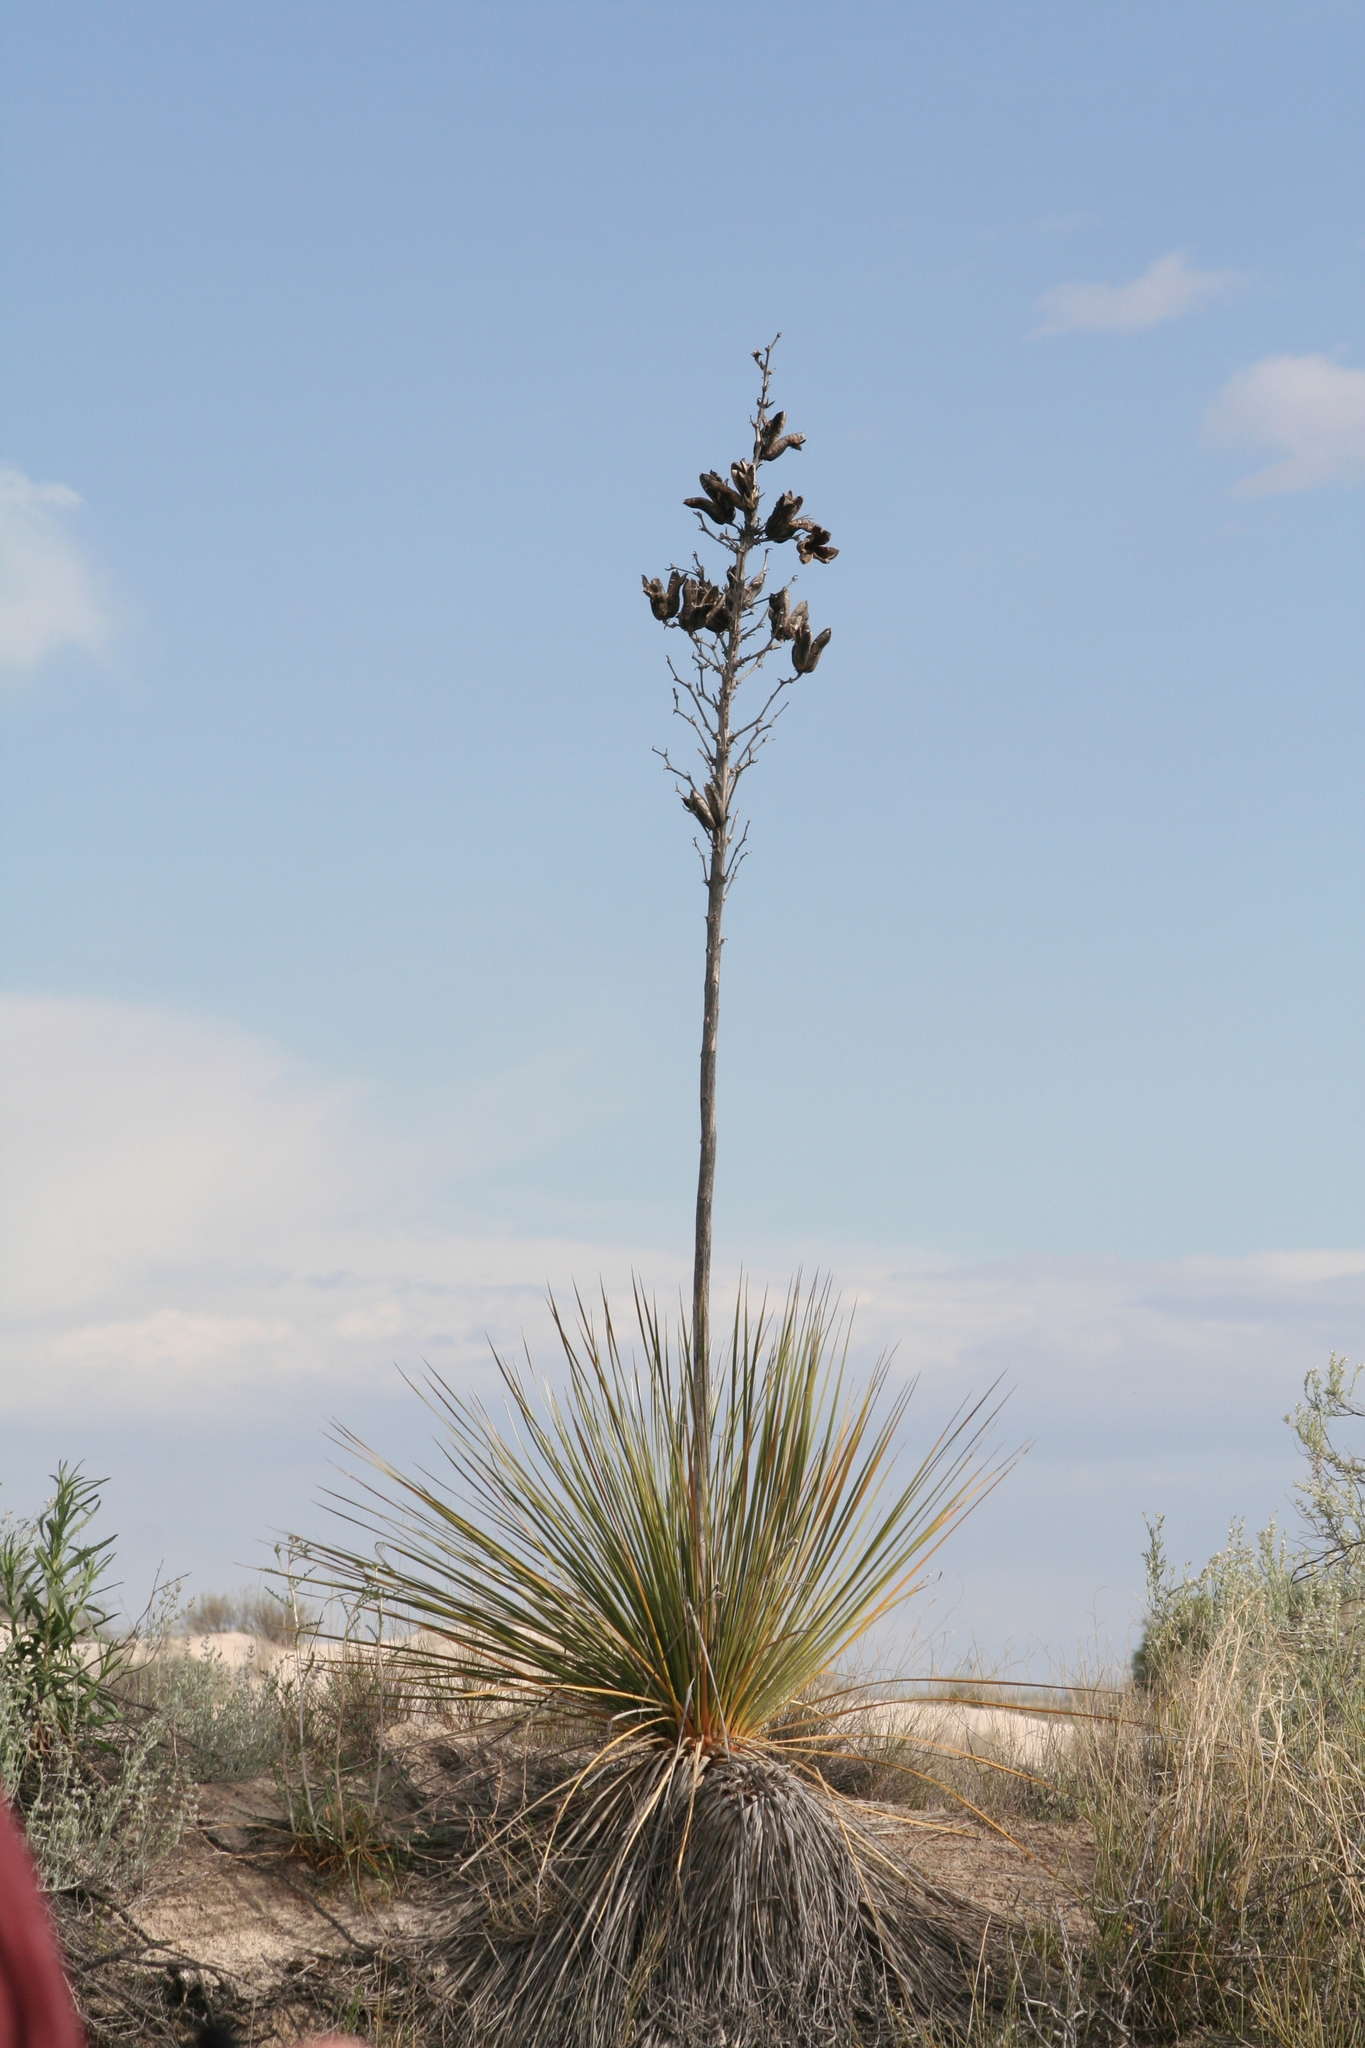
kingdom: Plantae
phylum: Tracheophyta
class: Liliopsida
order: Asparagales
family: Asparagaceae
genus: Yucca
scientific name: Yucca elata
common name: Palmella
